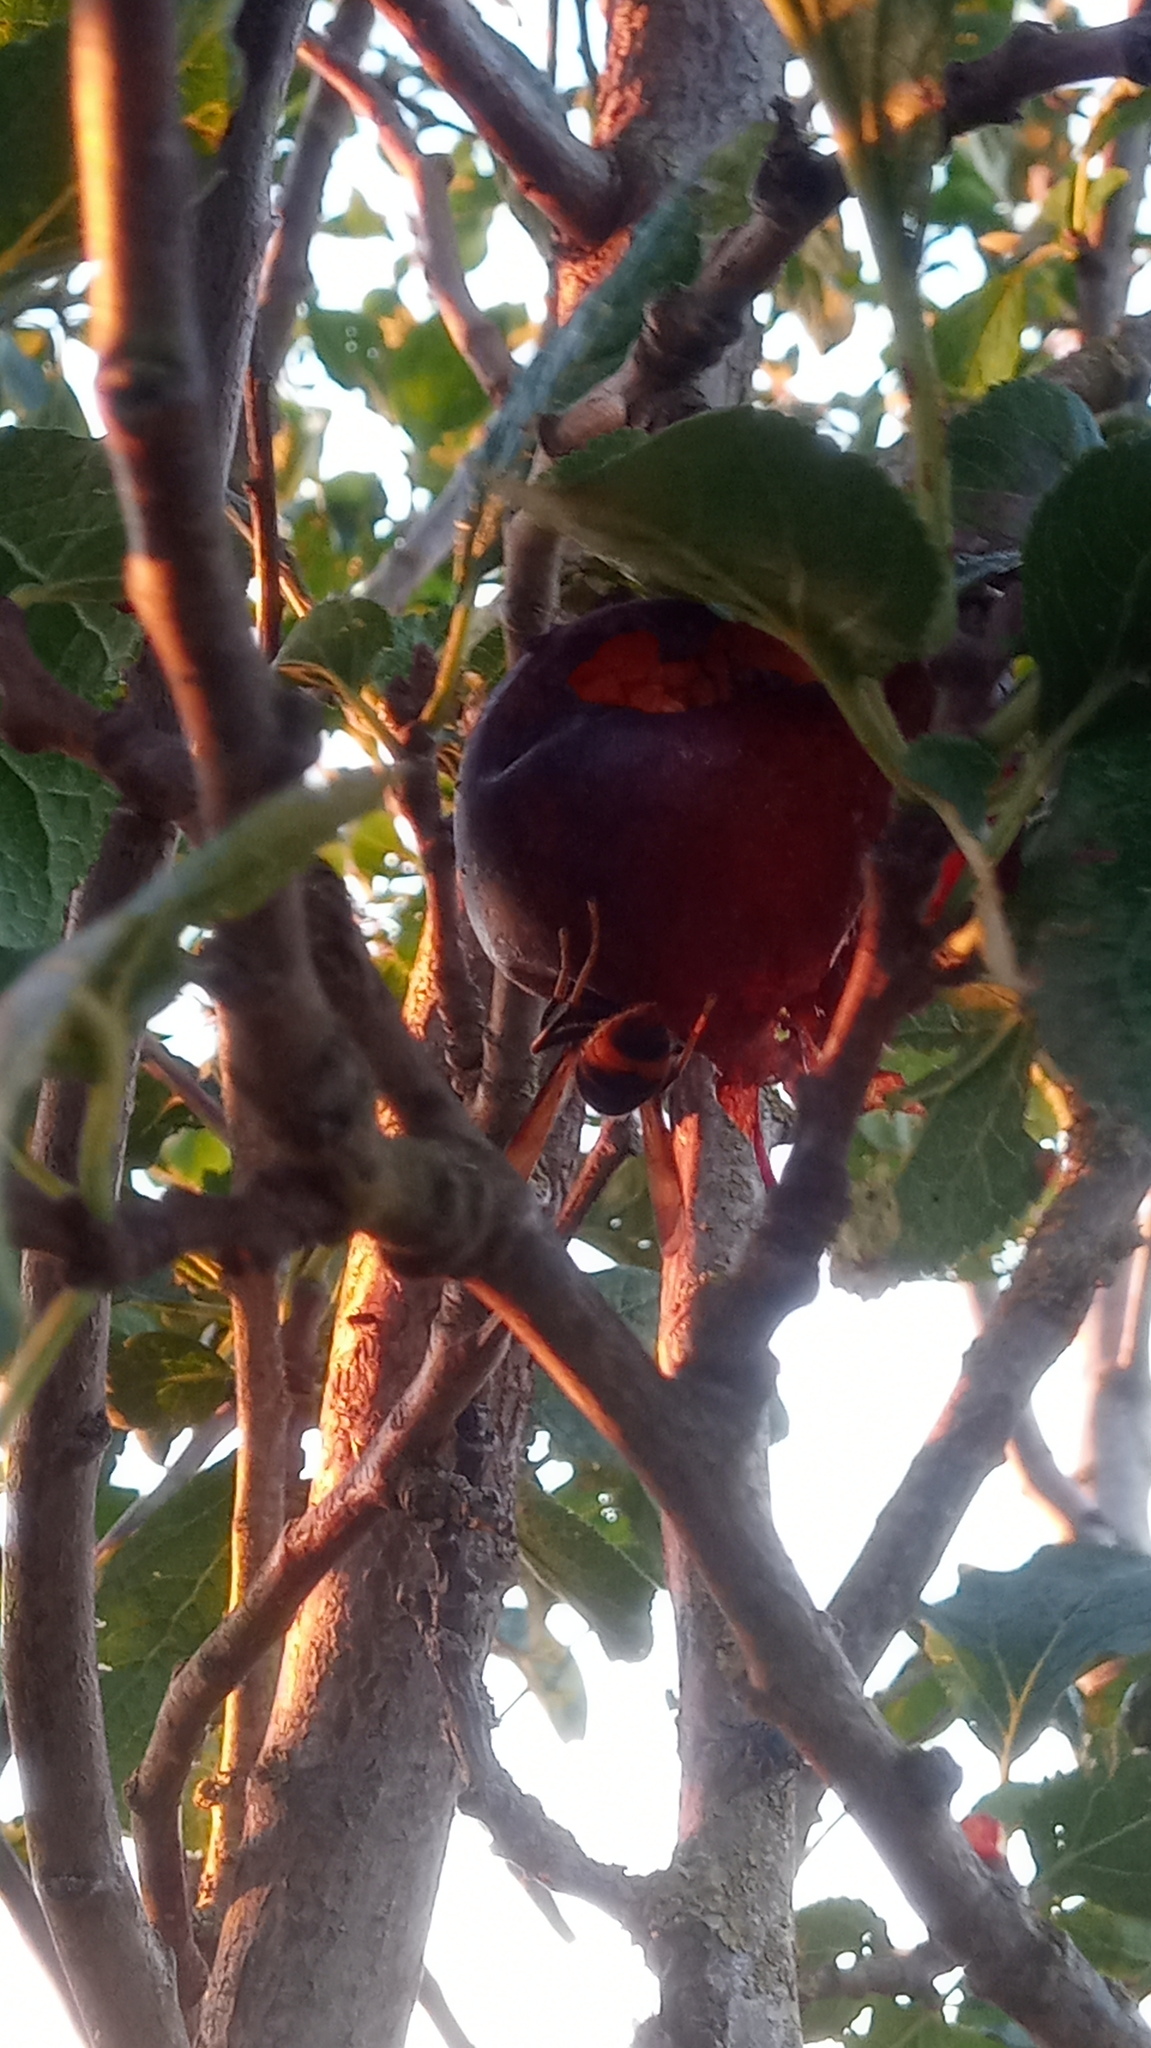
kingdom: Animalia
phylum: Arthropoda
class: Insecta
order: Hymenoptera
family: Vespidae
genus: Vespa
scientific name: Vespa velutina
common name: Asian hornet
